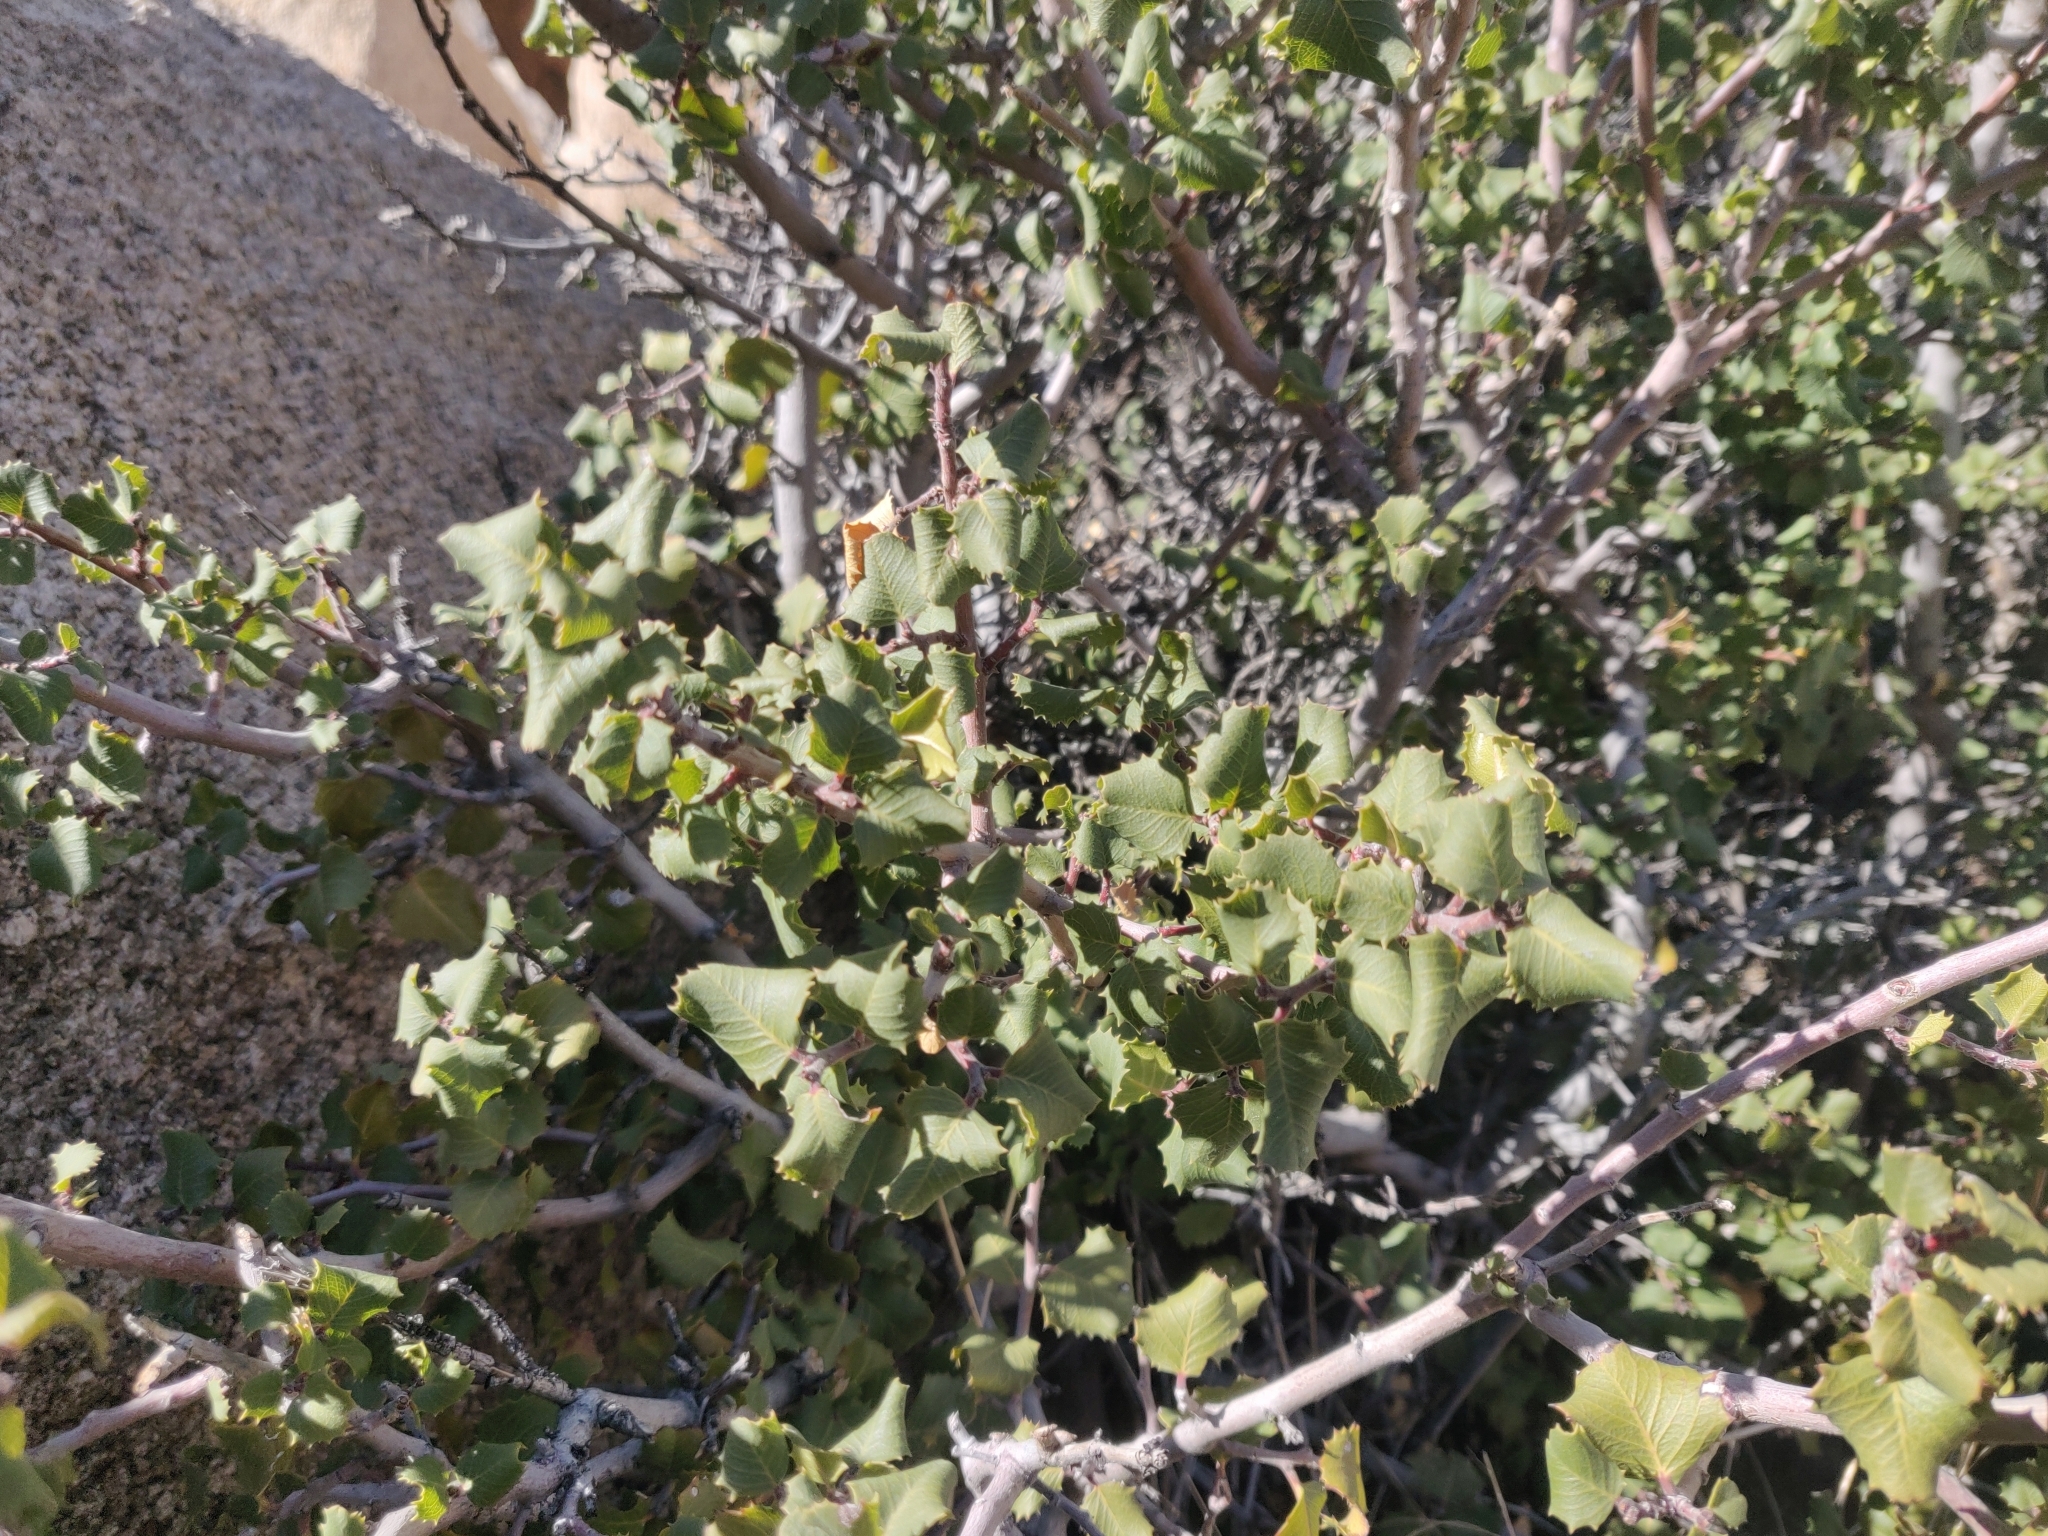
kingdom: Plantae
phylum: Tracheophyta
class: Magnoliopsida
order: Rosales
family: Rhamnaceae
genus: Endotropis
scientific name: Endotropis crocea
